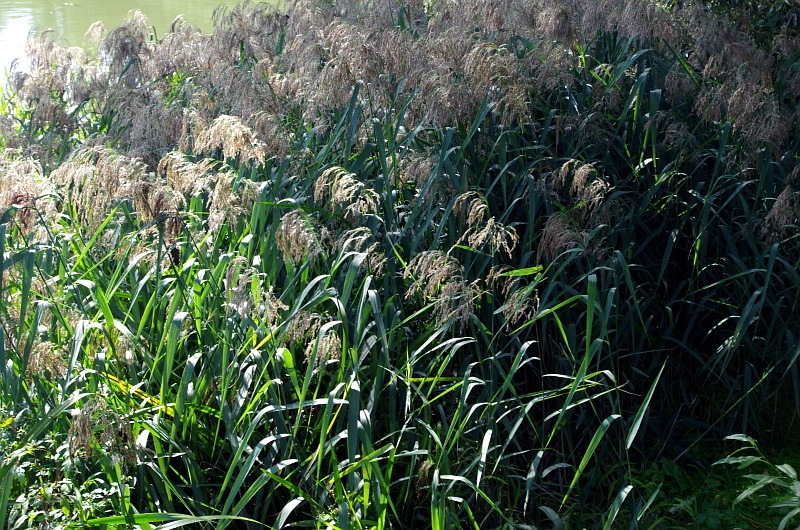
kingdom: Plantae
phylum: Tracheophyta
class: Liliopsida
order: Poales
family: Poaceae
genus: Phragmites
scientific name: Phragmites australis
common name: Common reed
